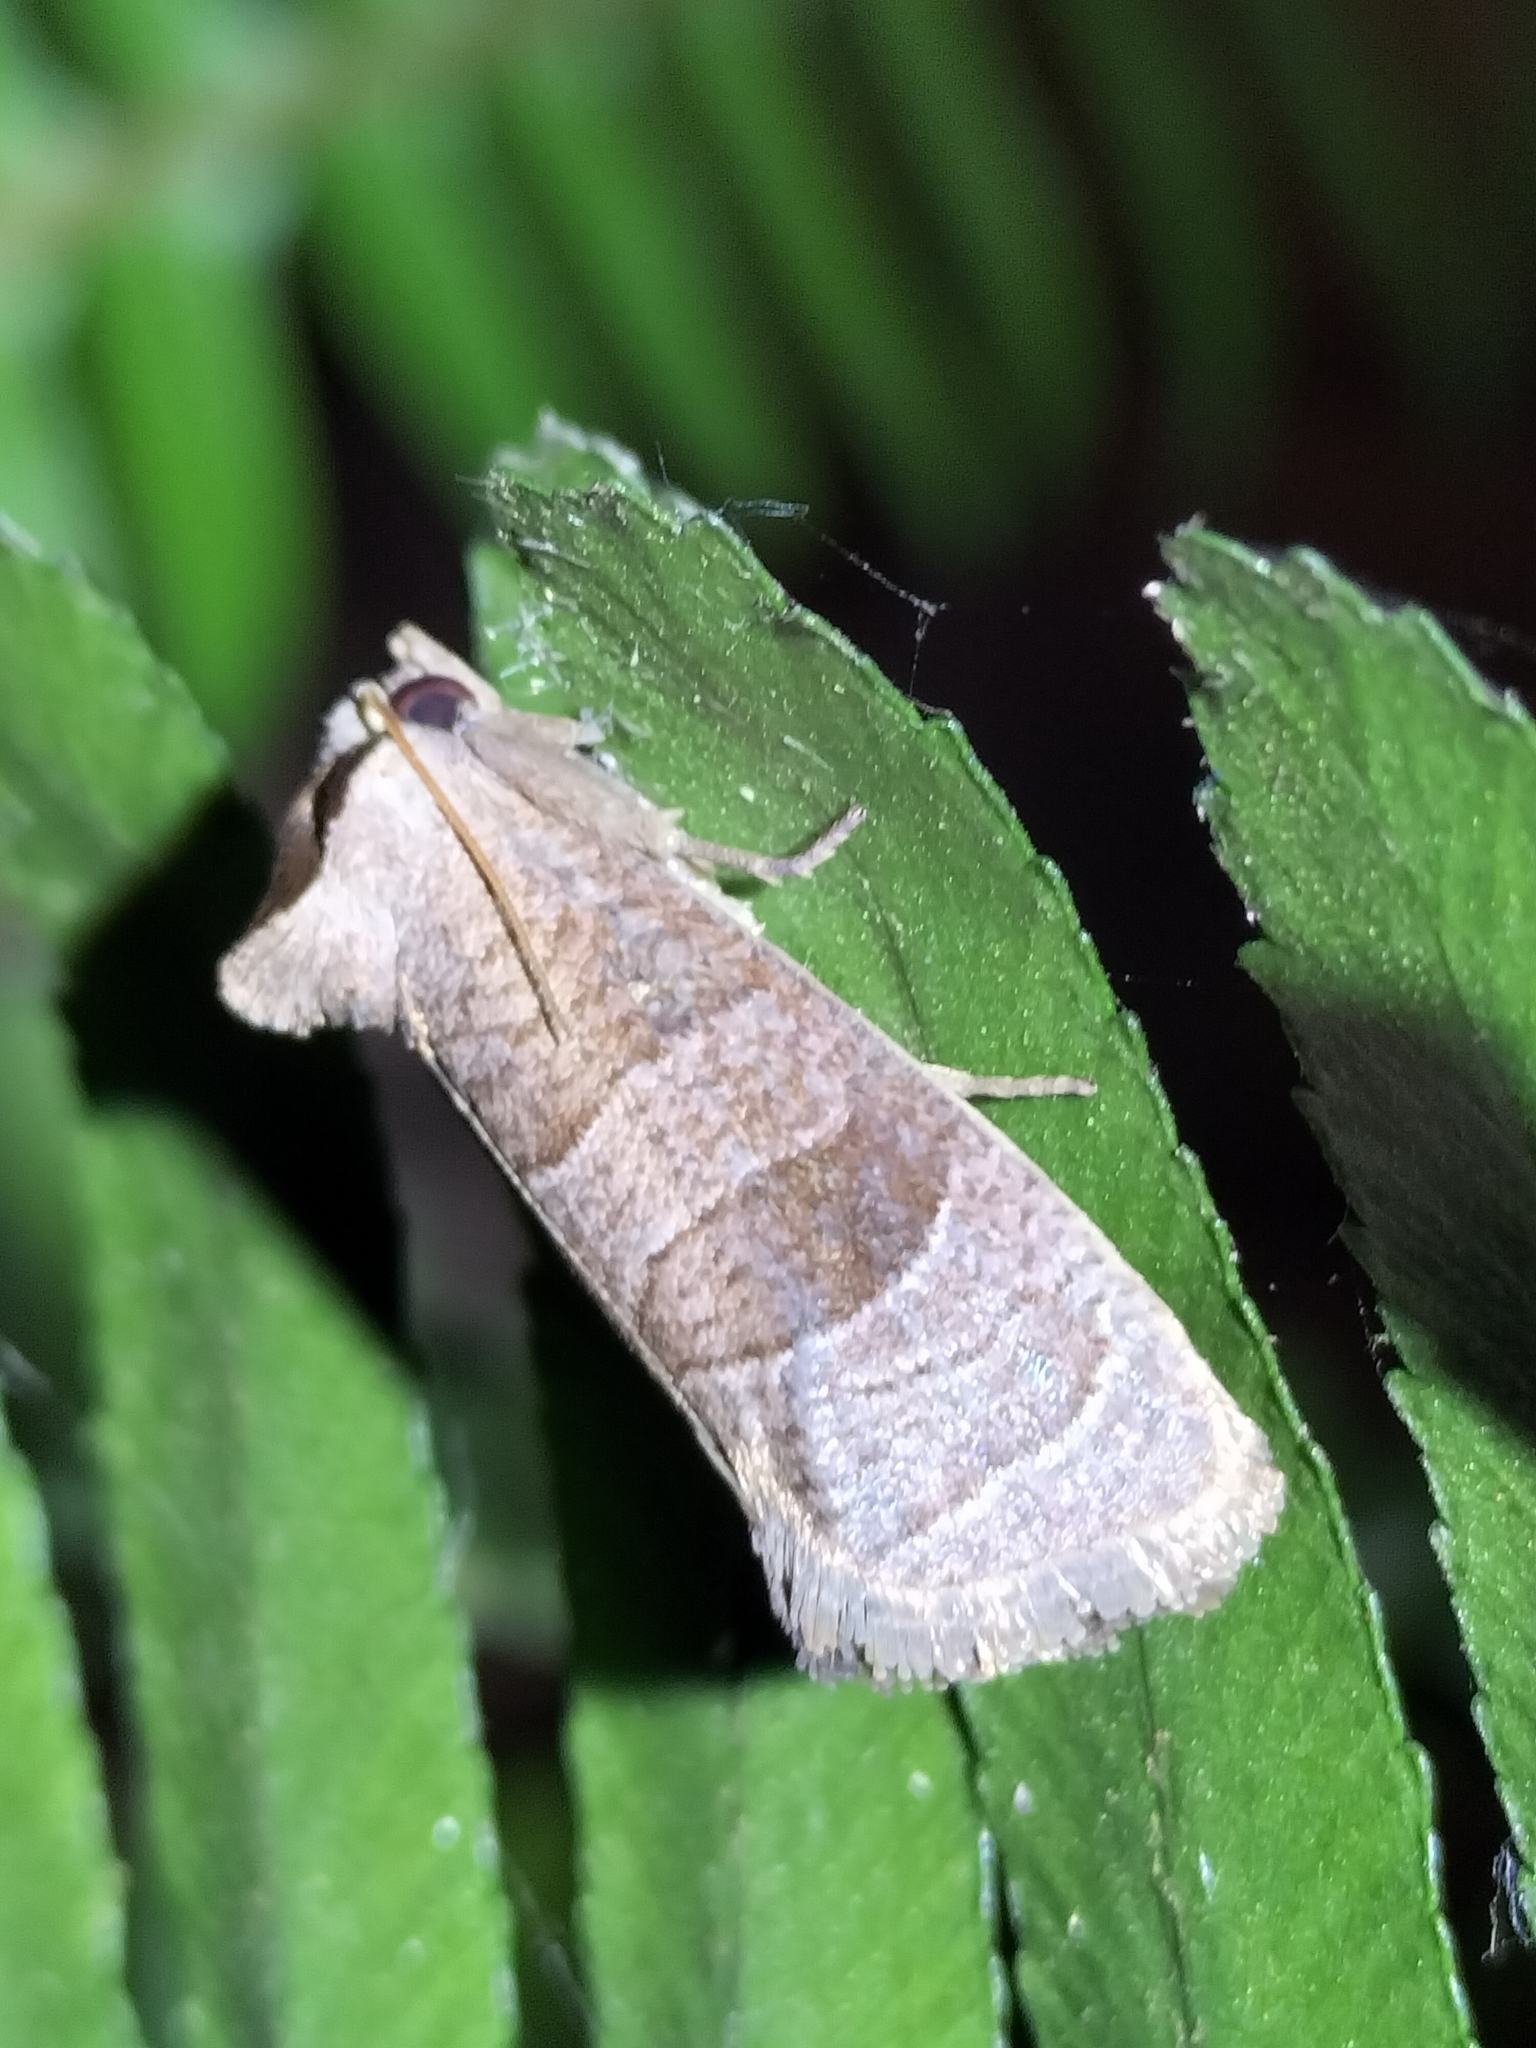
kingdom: Animalia
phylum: Arthropoda
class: Insecta
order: Lepidoptera
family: Cossidae
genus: Eusthenica
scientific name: Eusthenica treicleiota
